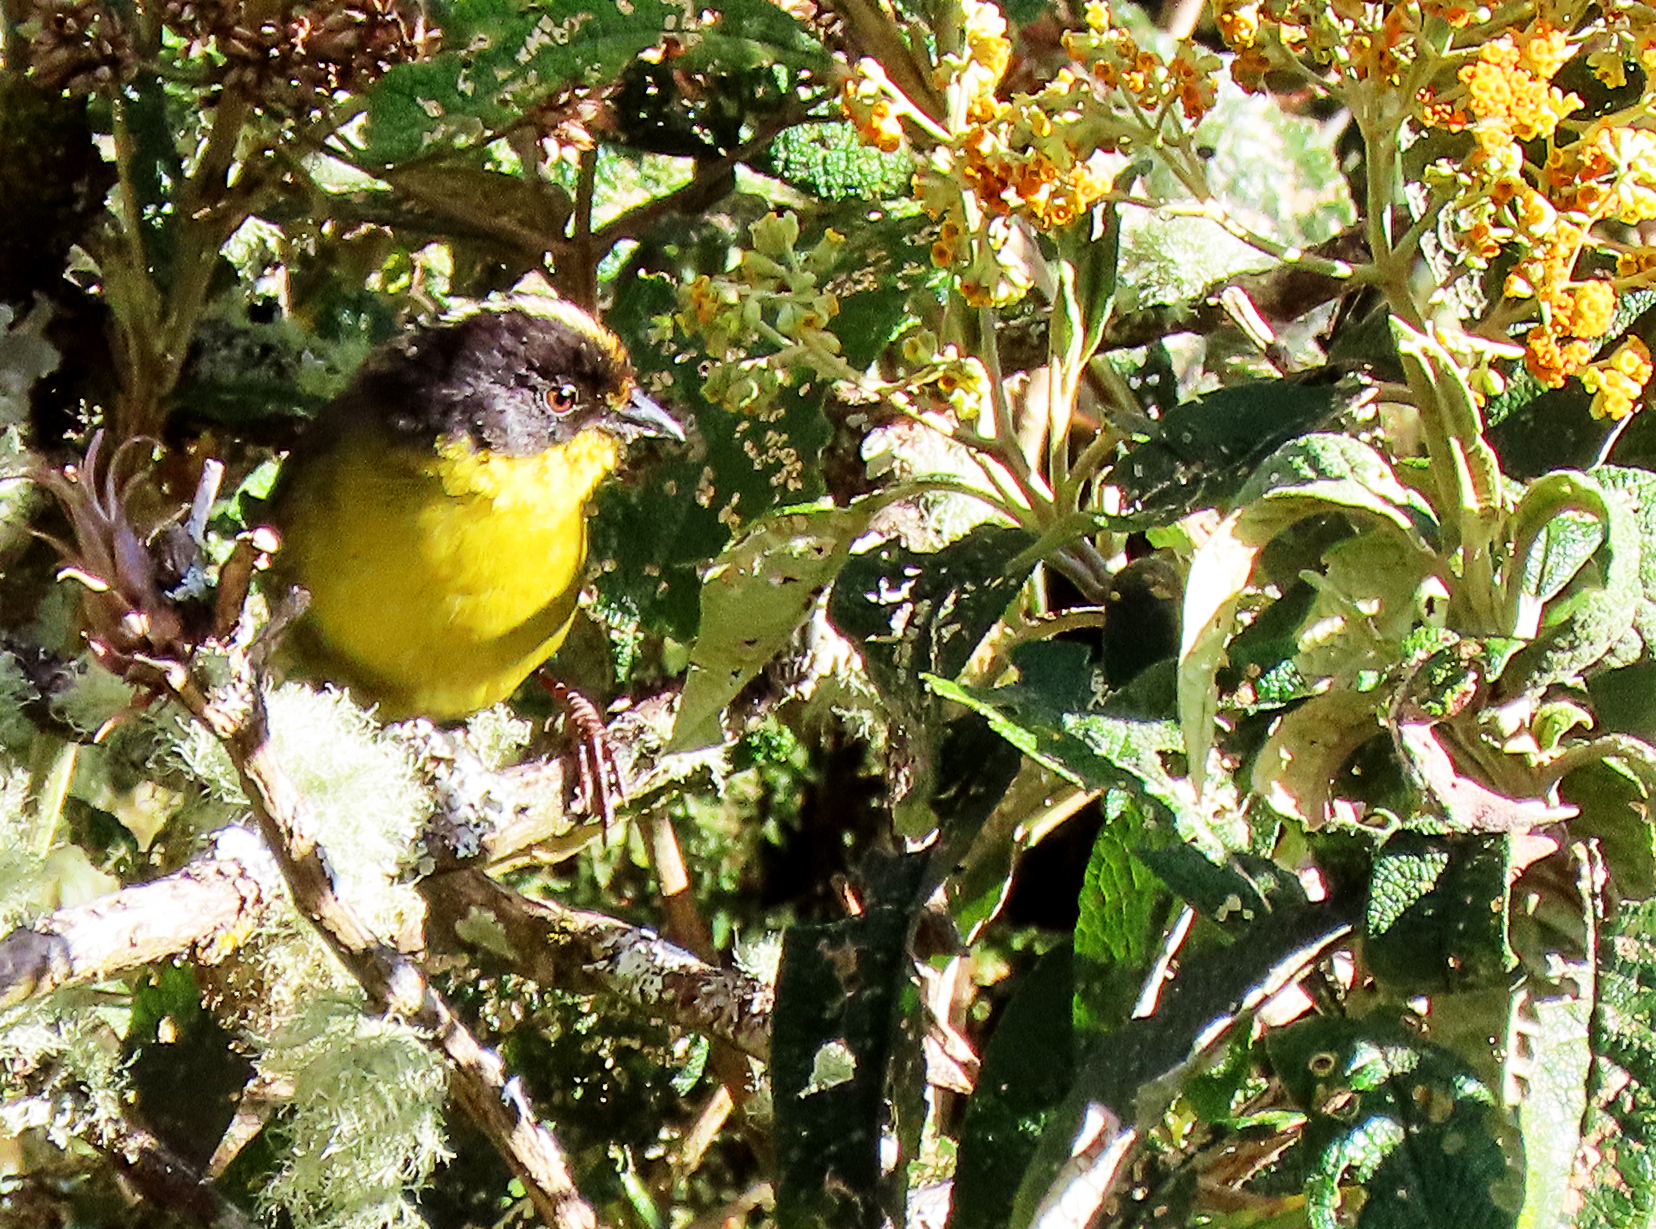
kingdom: Animalia
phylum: Chordata
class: Aves
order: Passeriformes
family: Passerellidae
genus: Atlapetes
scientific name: Atlapetes pallidinucha
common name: Pale-naped brushfinch
